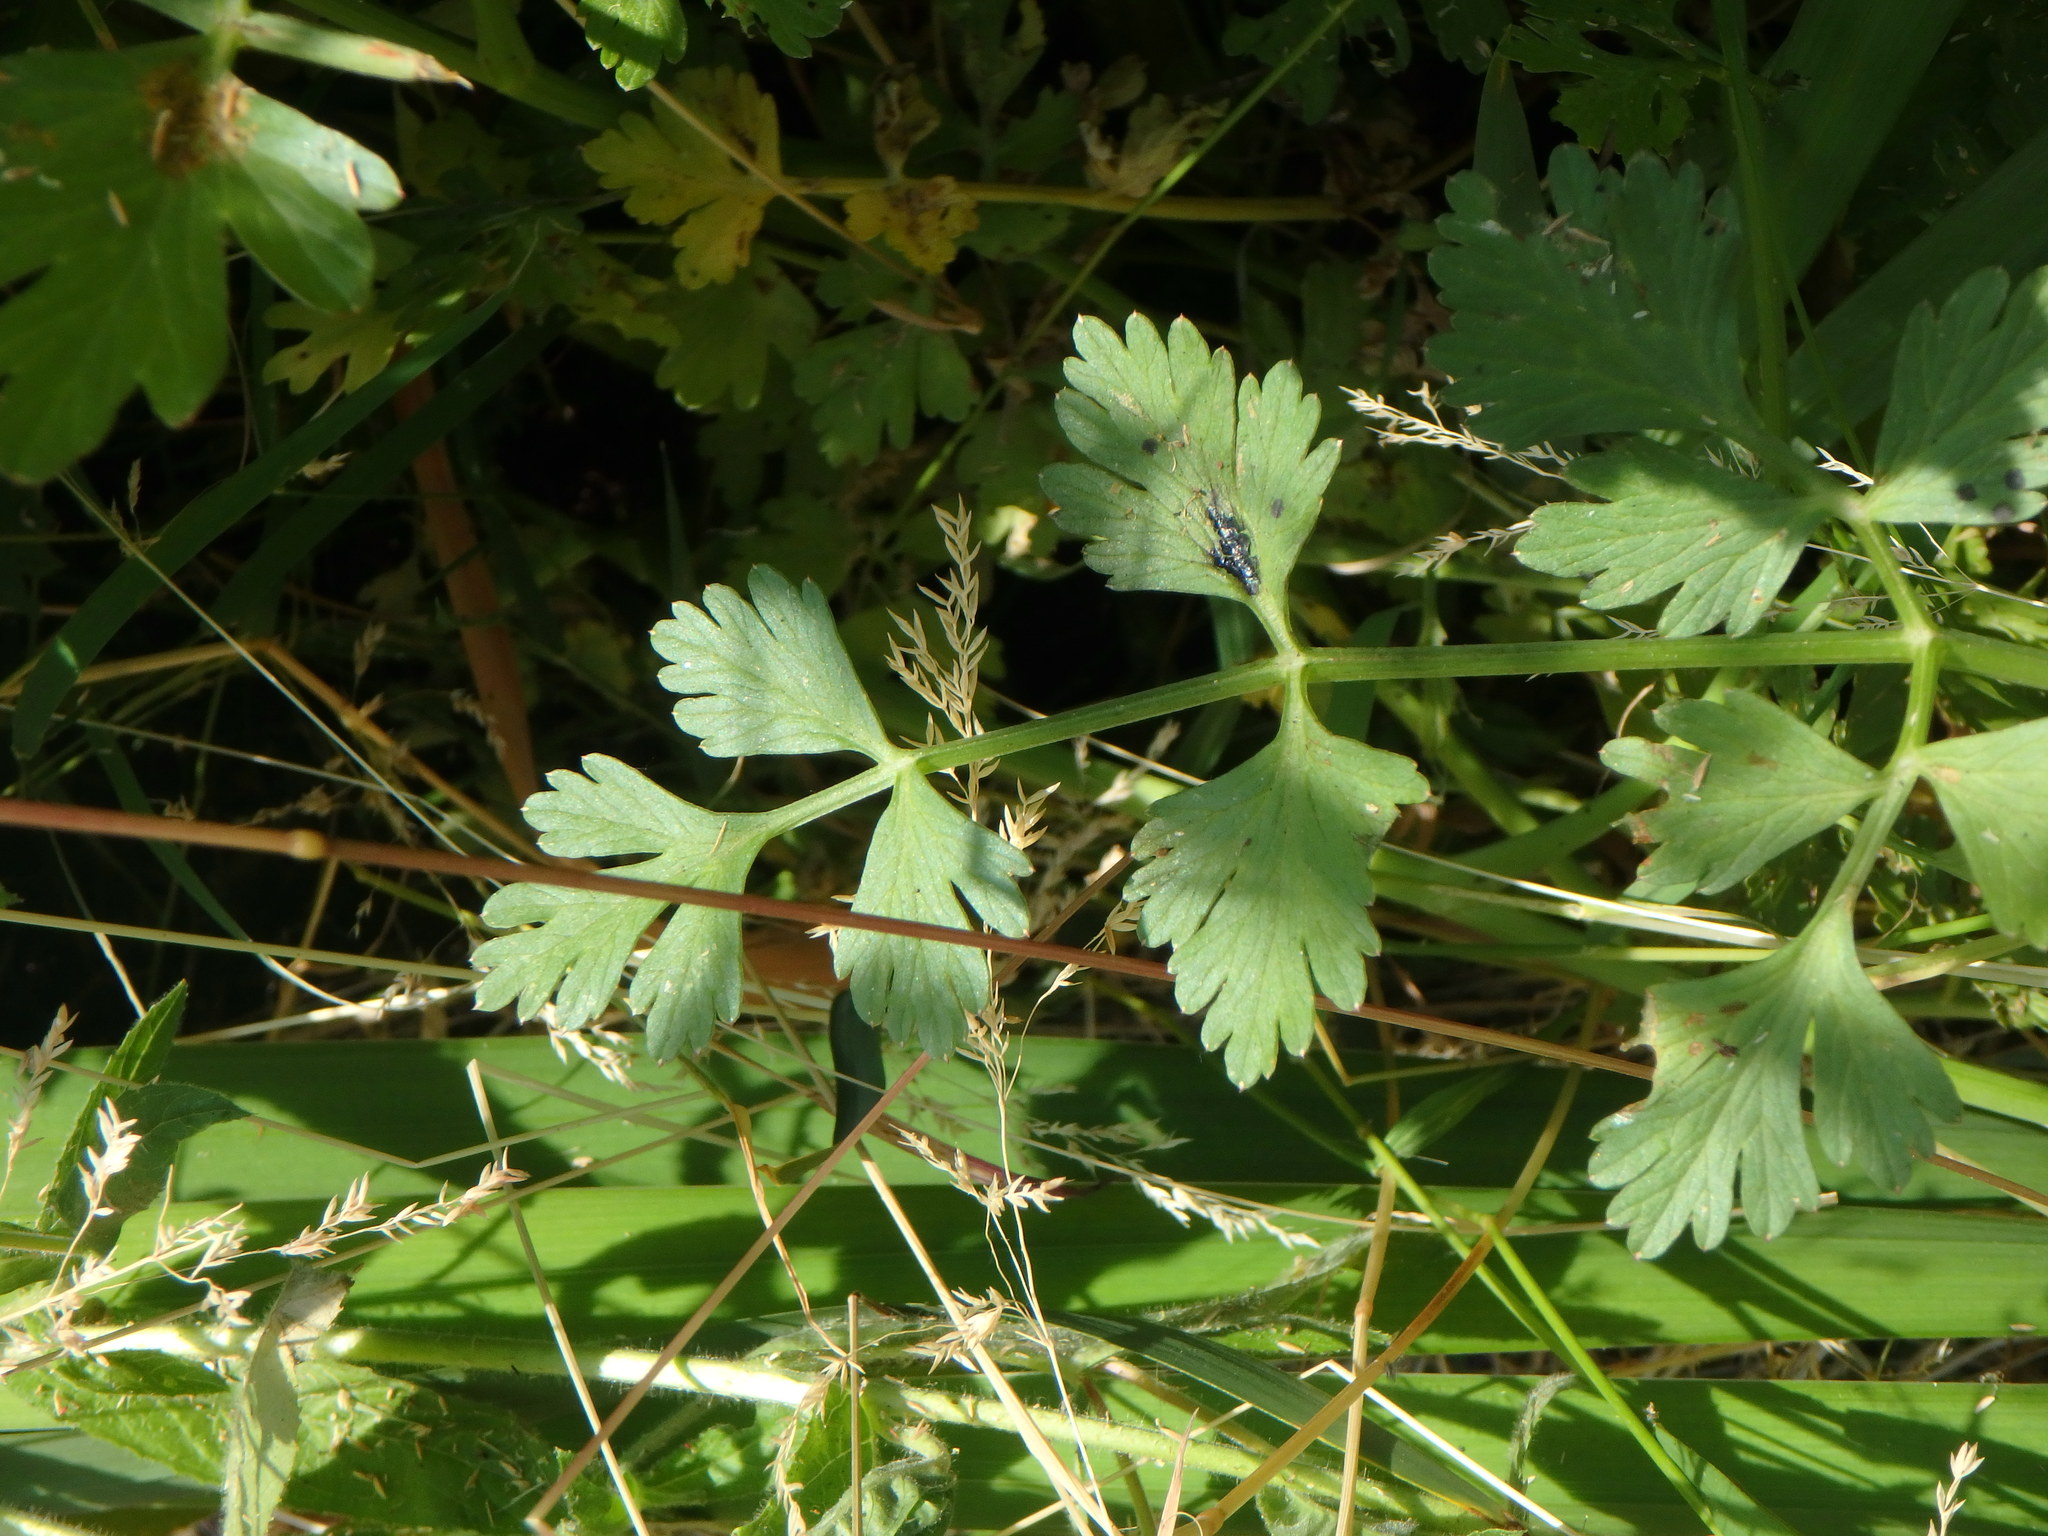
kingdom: Plantae
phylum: Tracheophyta
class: Magnoliopsida
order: Apiales
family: Apiaceae
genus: Oenanthe
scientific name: Oenanthe crocata
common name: Hemlock water-dropwort
